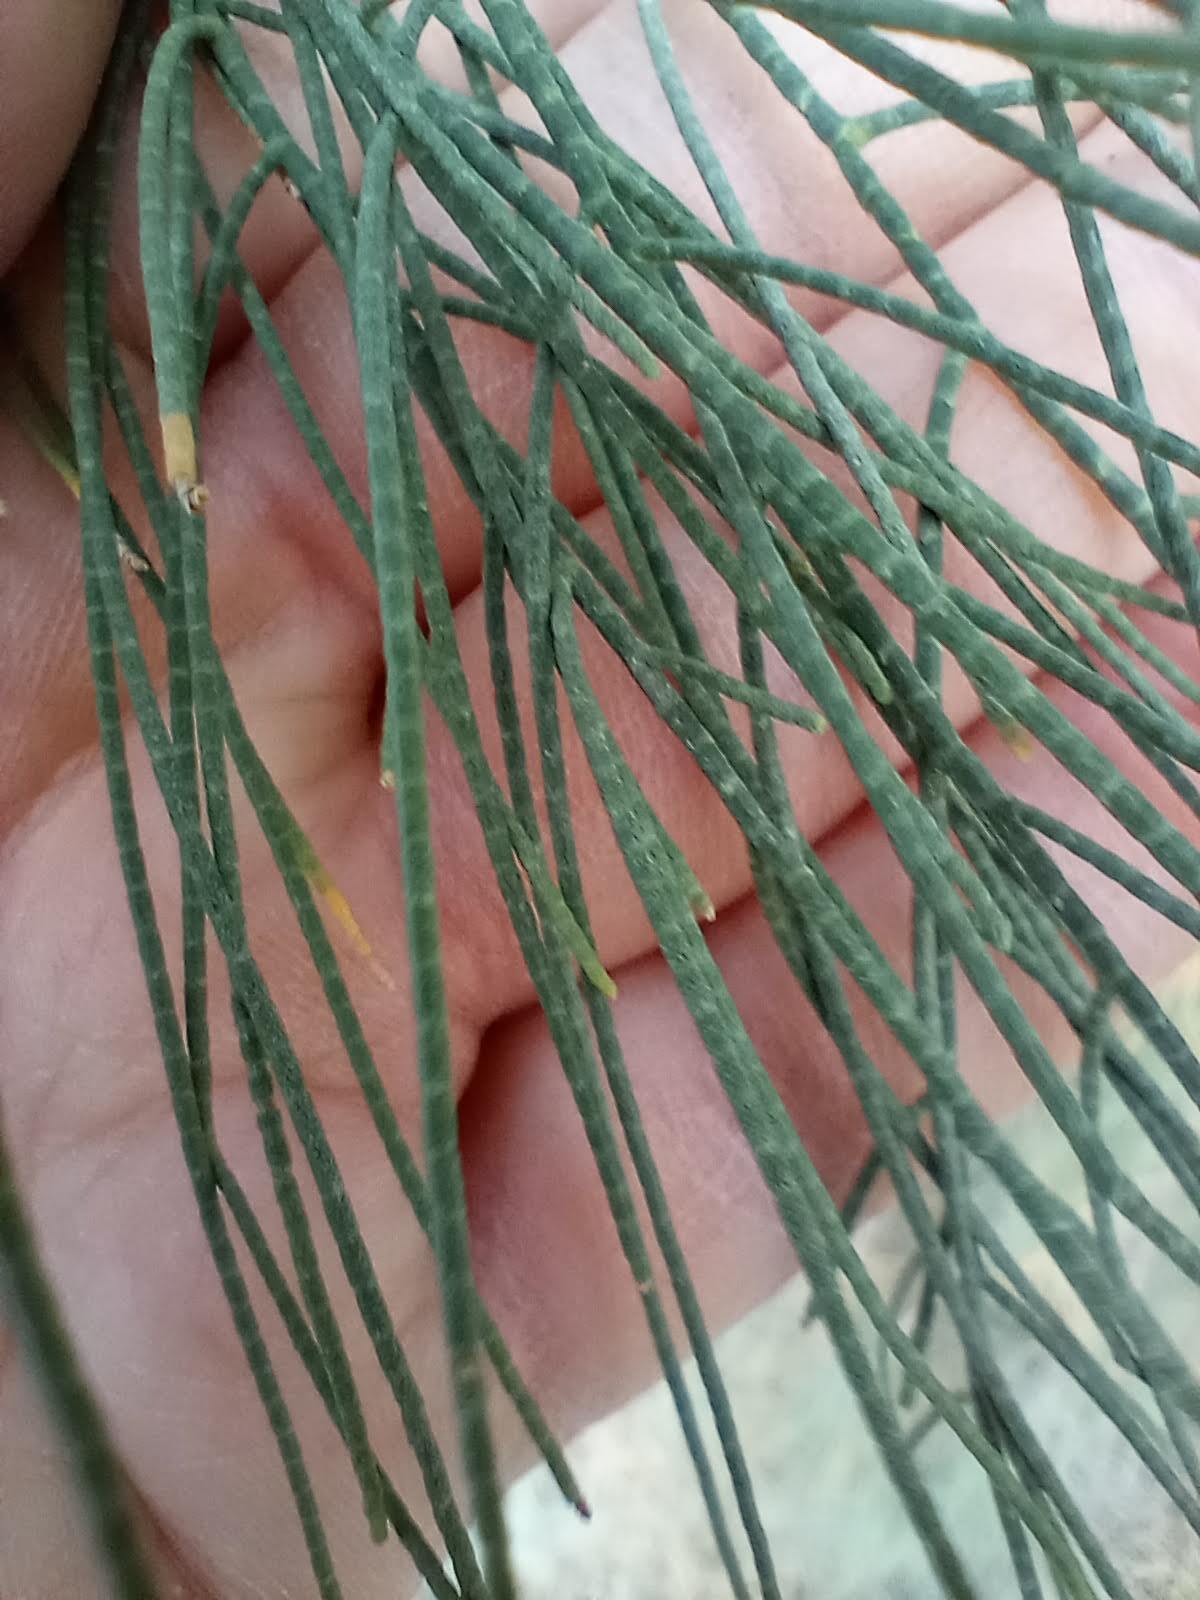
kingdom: Plantae
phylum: Tracheophyta
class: Magnoliopsida
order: Caryophyllales
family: Tamaricaceae
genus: Tamarix
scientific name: Tamarix aphylla
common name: Athel tamarisk
